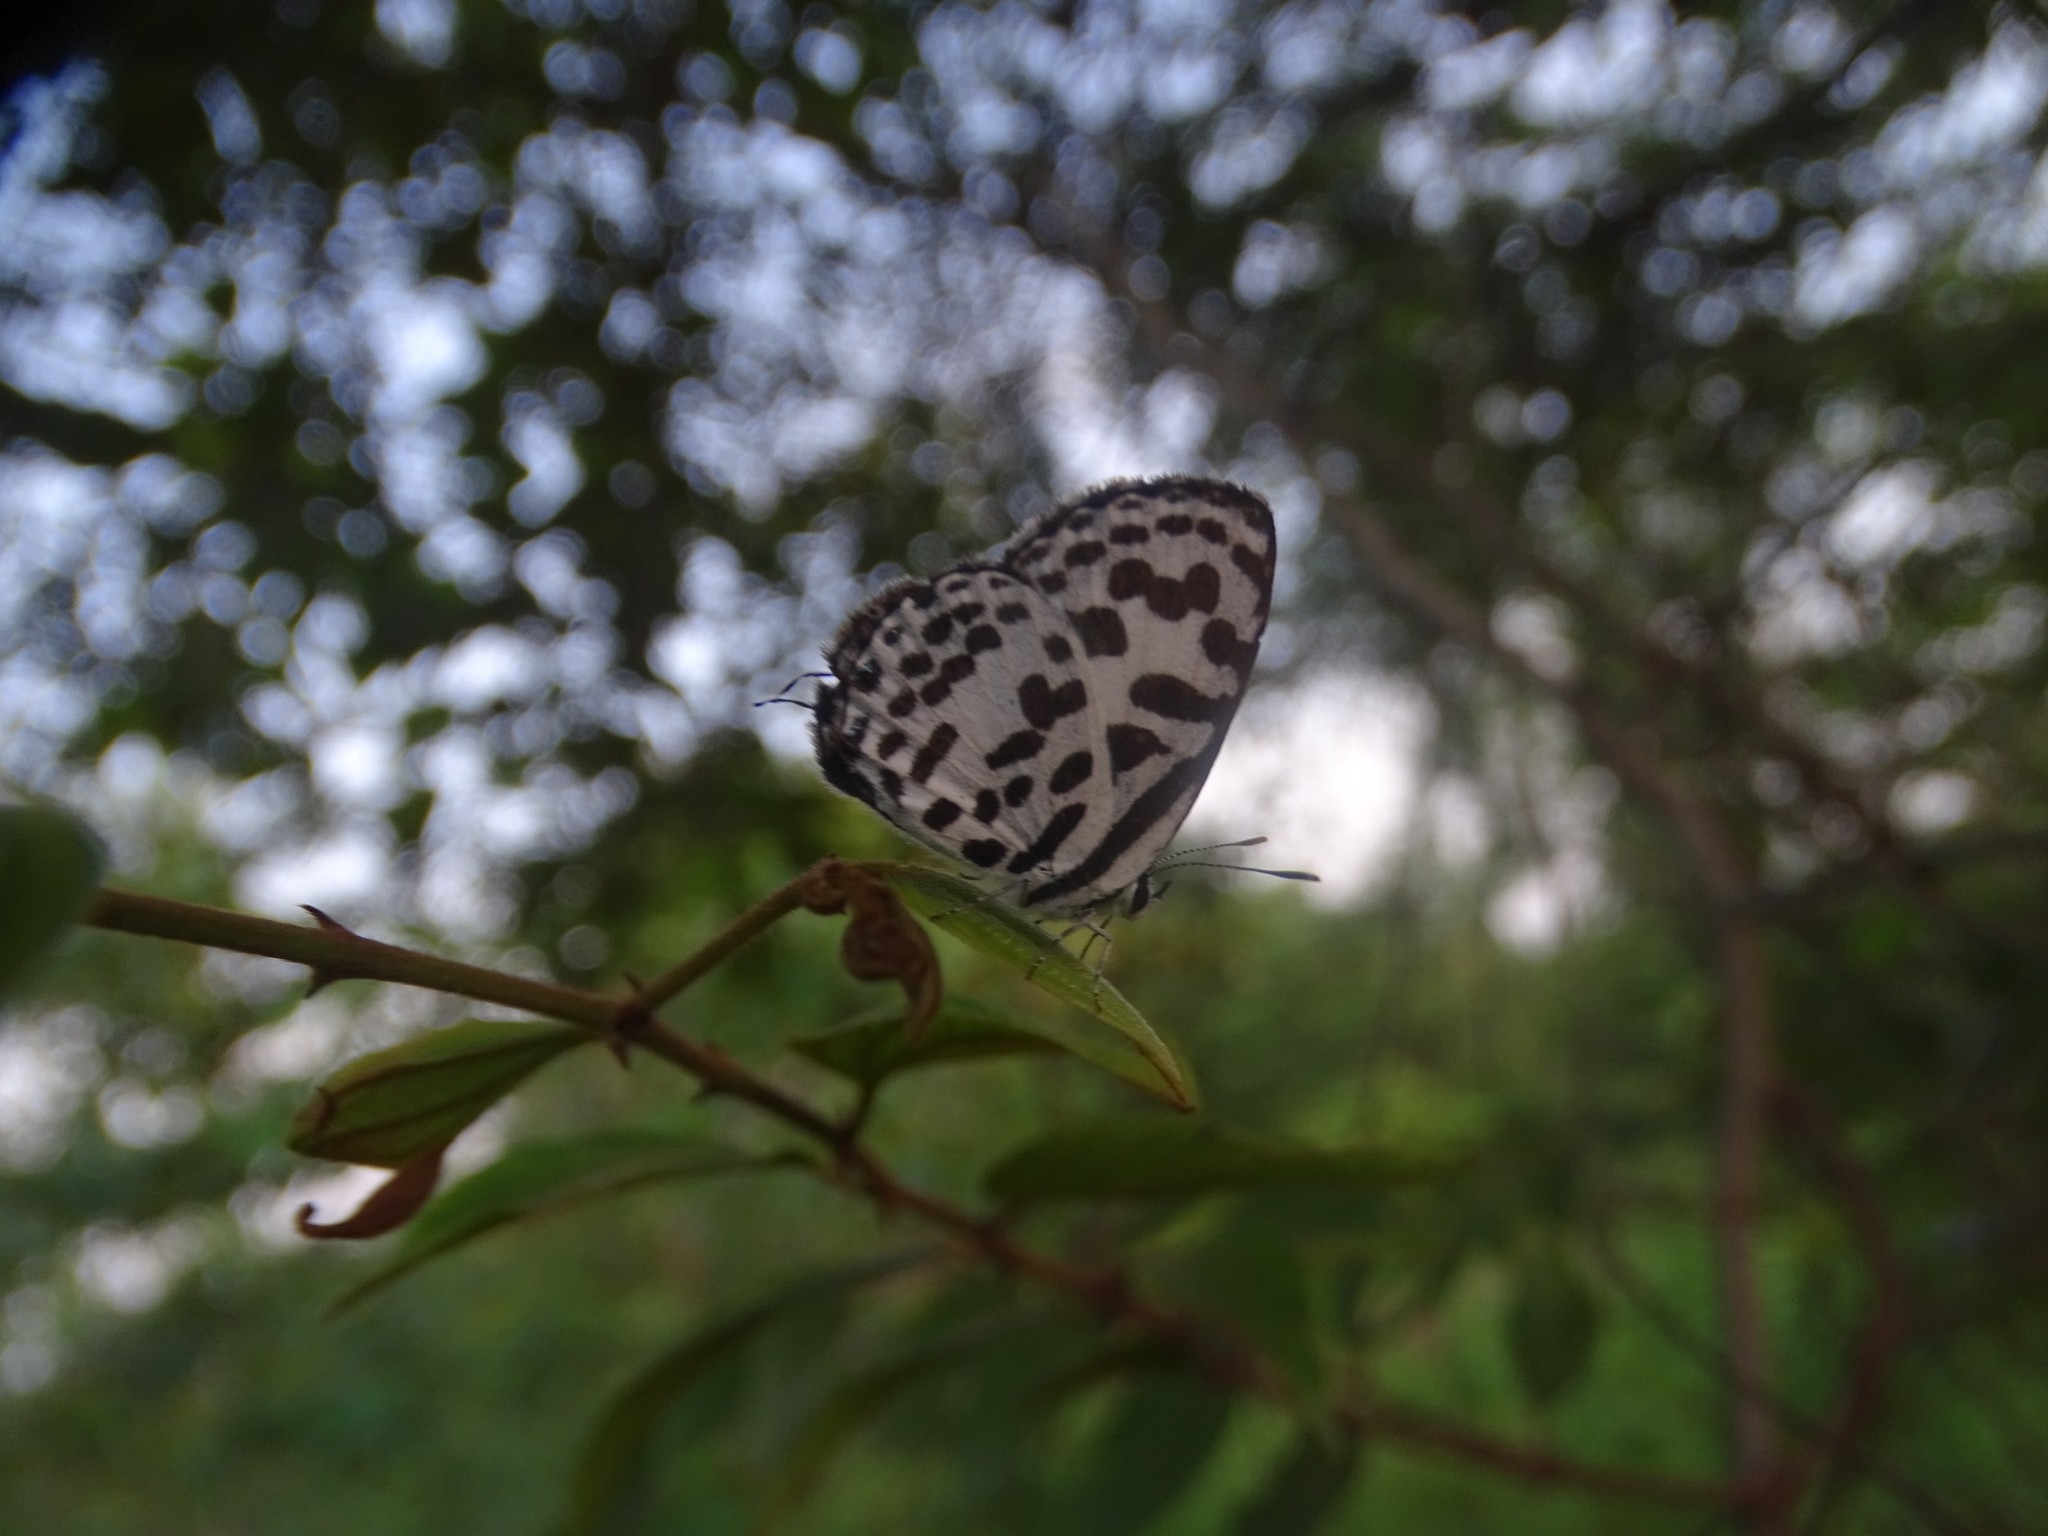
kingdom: Animalia
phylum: Arthropoda
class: Insecta
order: Lepidoptera
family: Lycaenidae
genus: Castalius
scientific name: Castalius rosimon
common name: Common pierrot
